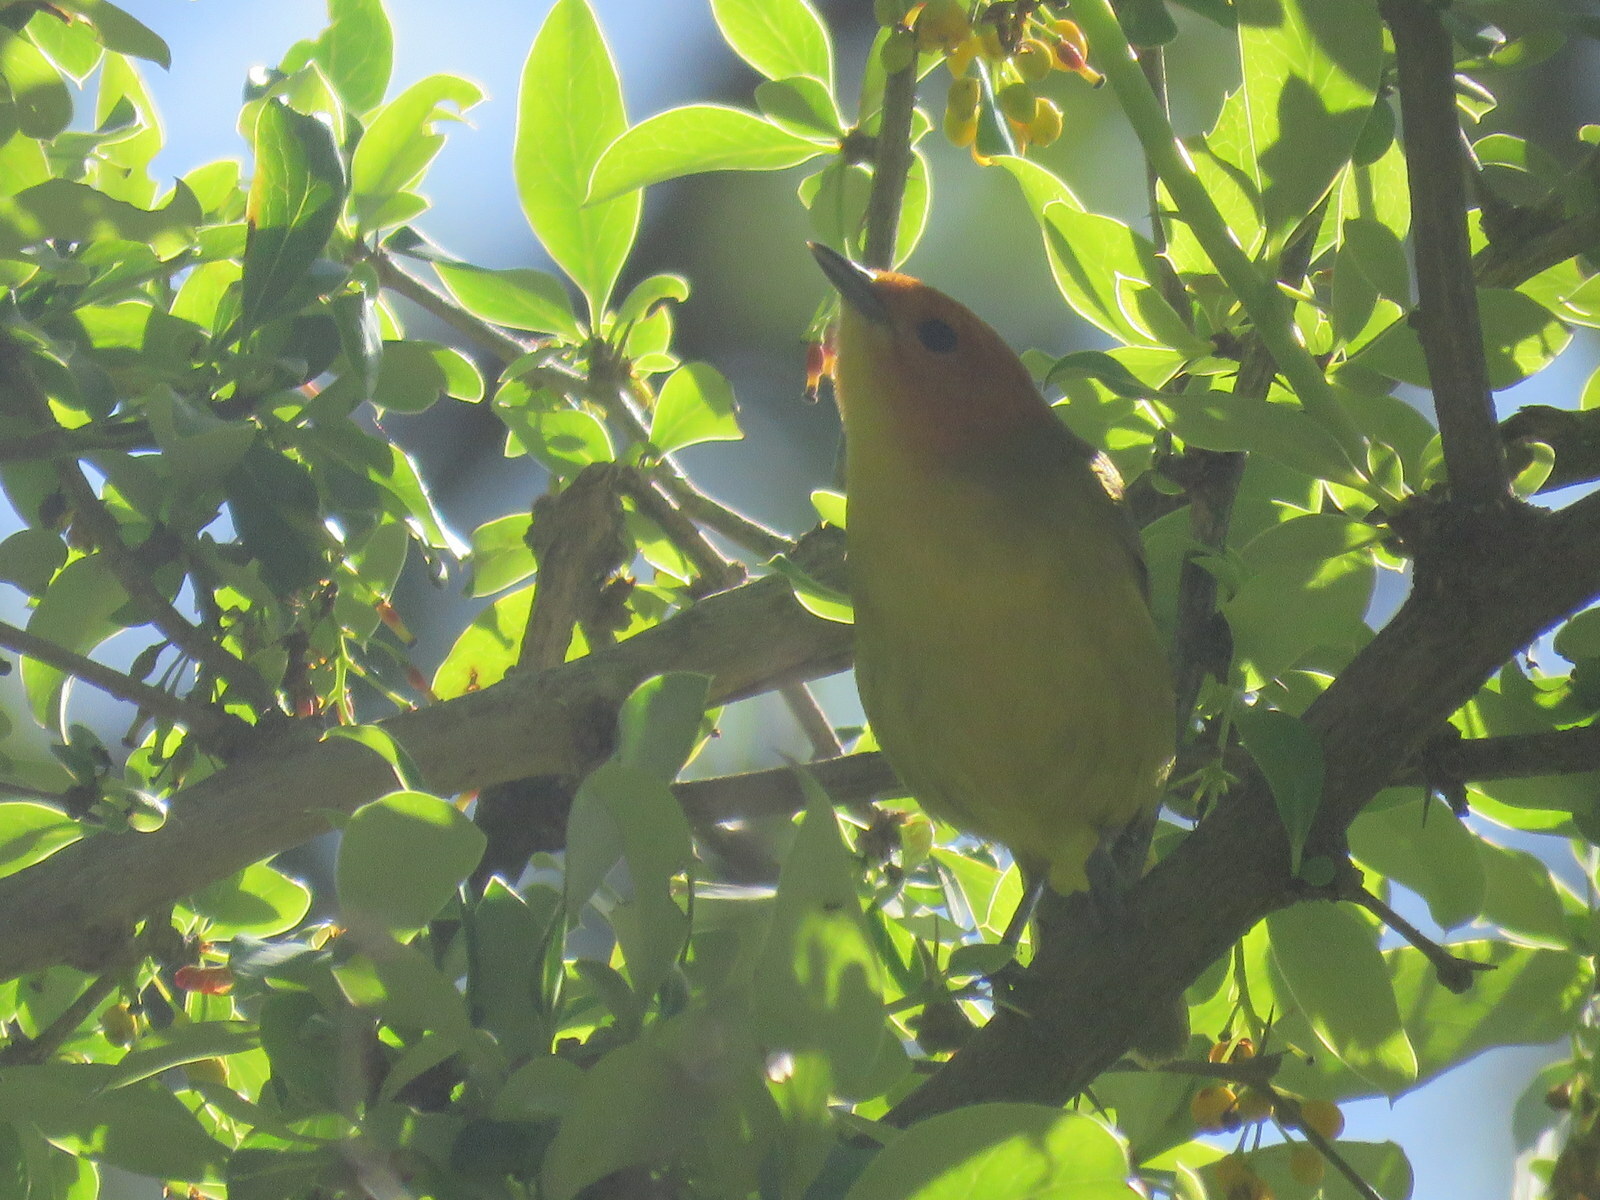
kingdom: Animalia
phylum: Chordata
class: Aves
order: Passeriformes
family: Thraupidae
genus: Thlypopsis
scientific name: Thlypopsis ruficeps
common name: Rust-and-yellow tanager
